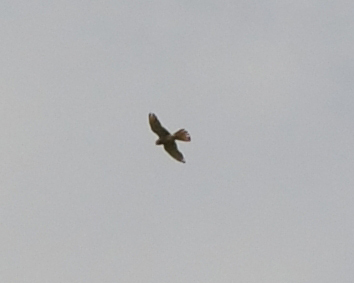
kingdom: Animalia
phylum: Chordata
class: Aves
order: Falconiformes
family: Falconidae
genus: Falco
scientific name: Falco tinnunculus
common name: Common kestrel
